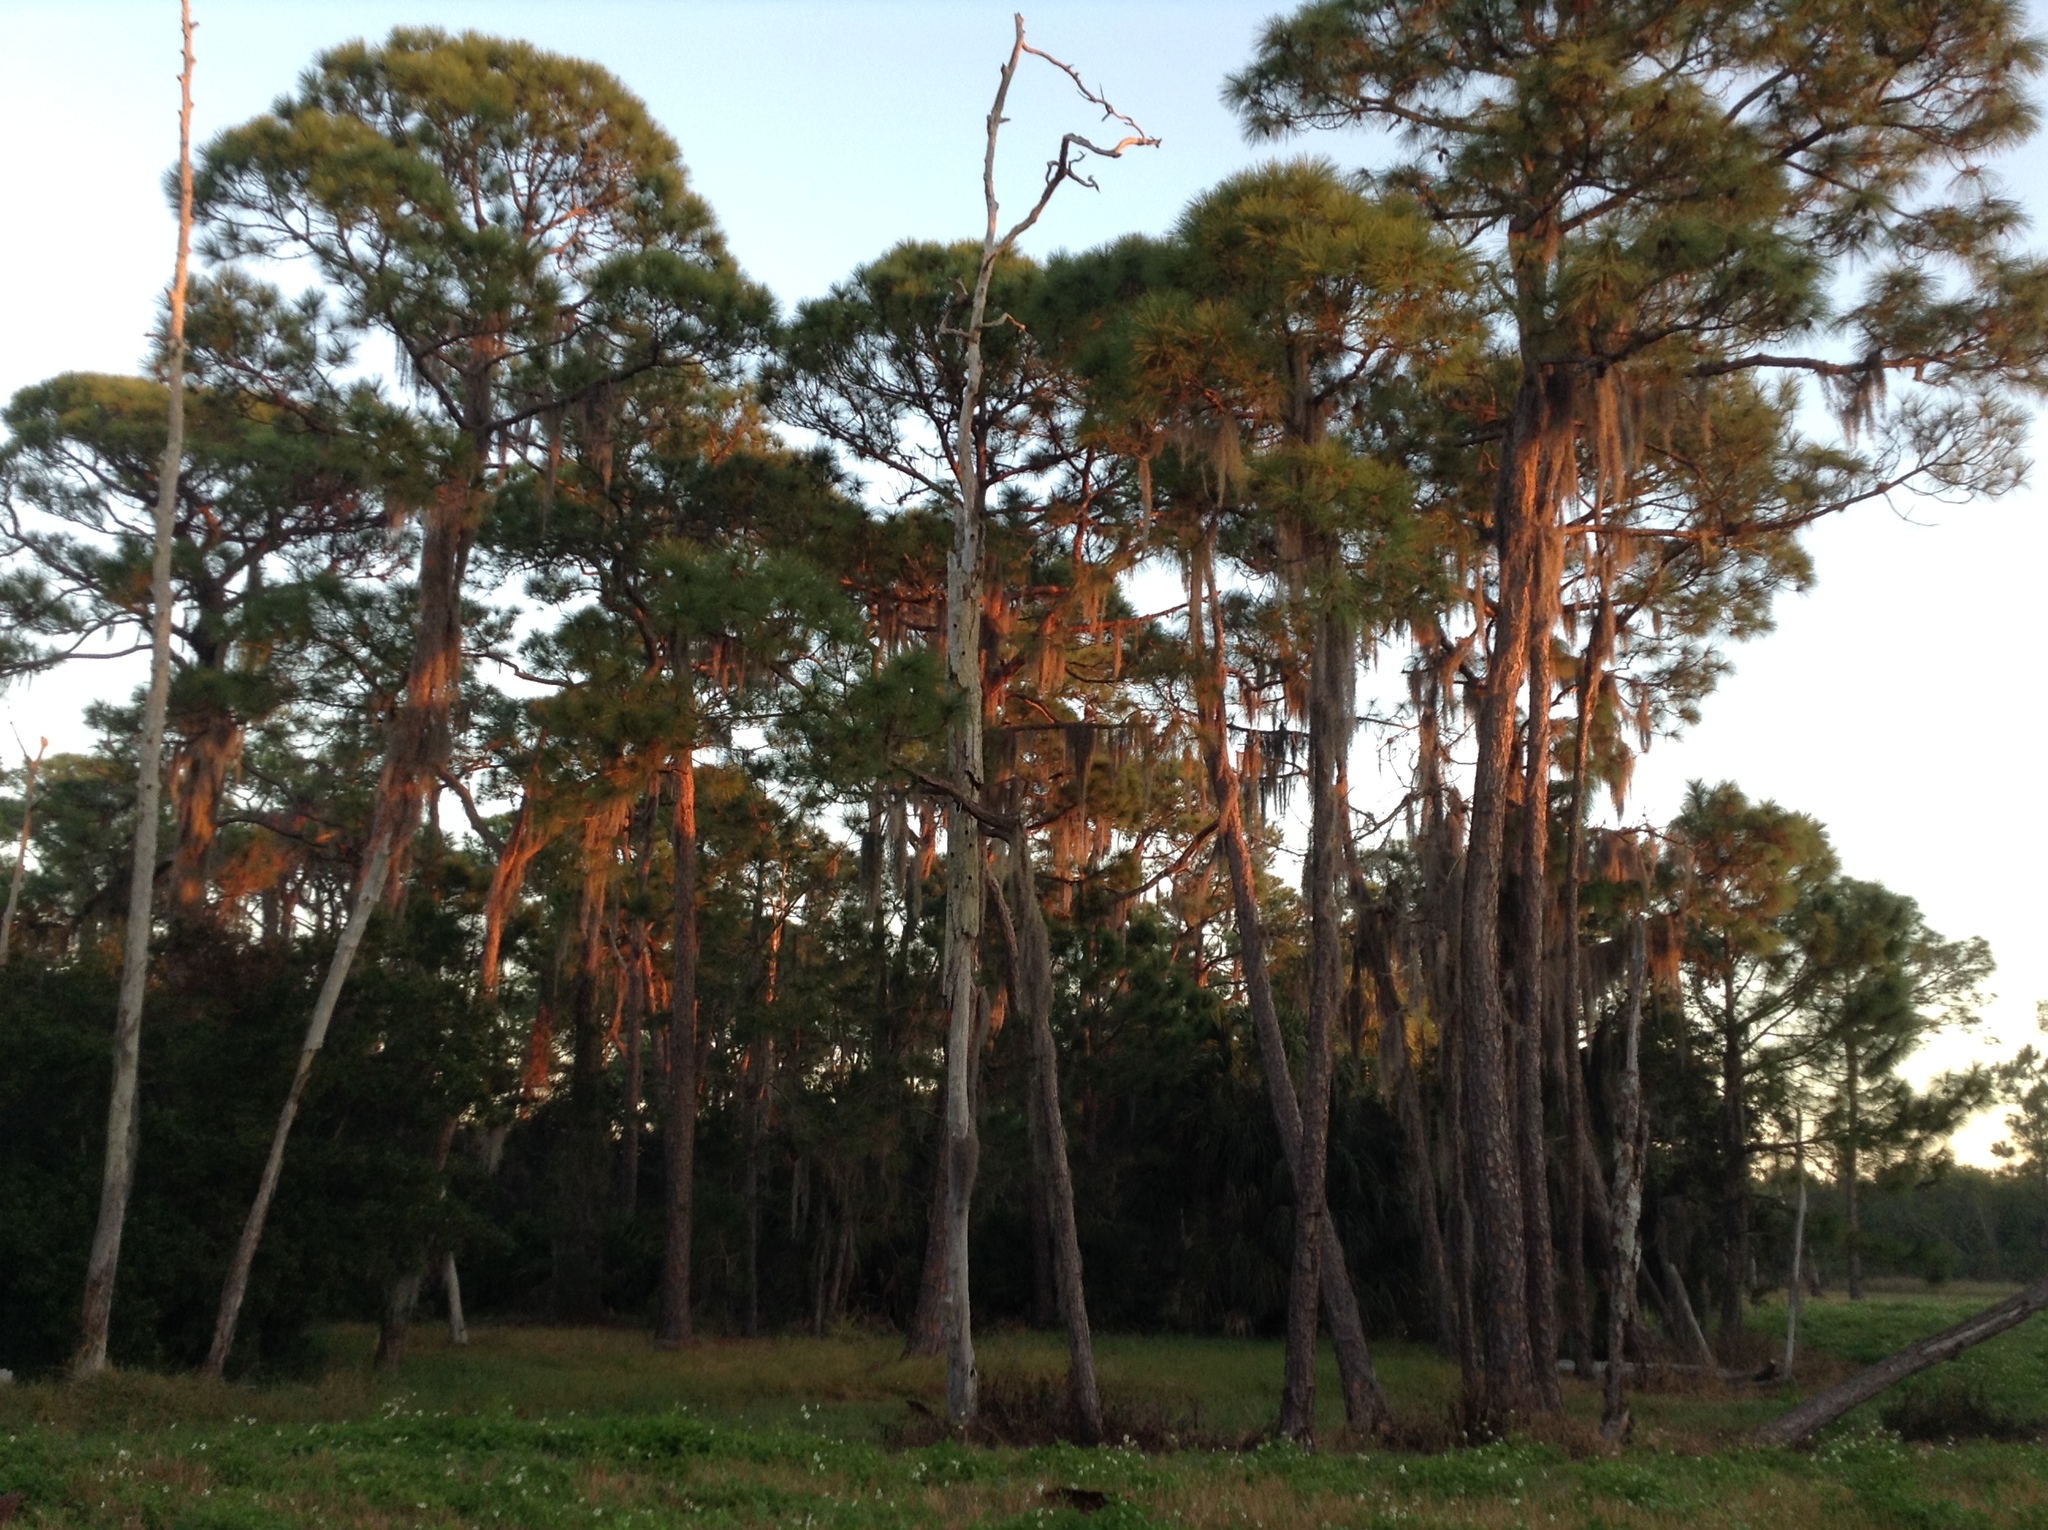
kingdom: Plantae
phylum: Tracheophyta
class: Liliopsida
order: Poales
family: Bromeliaceae
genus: Tillandsia
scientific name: Tillandsia usneoides
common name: Spanish moss
